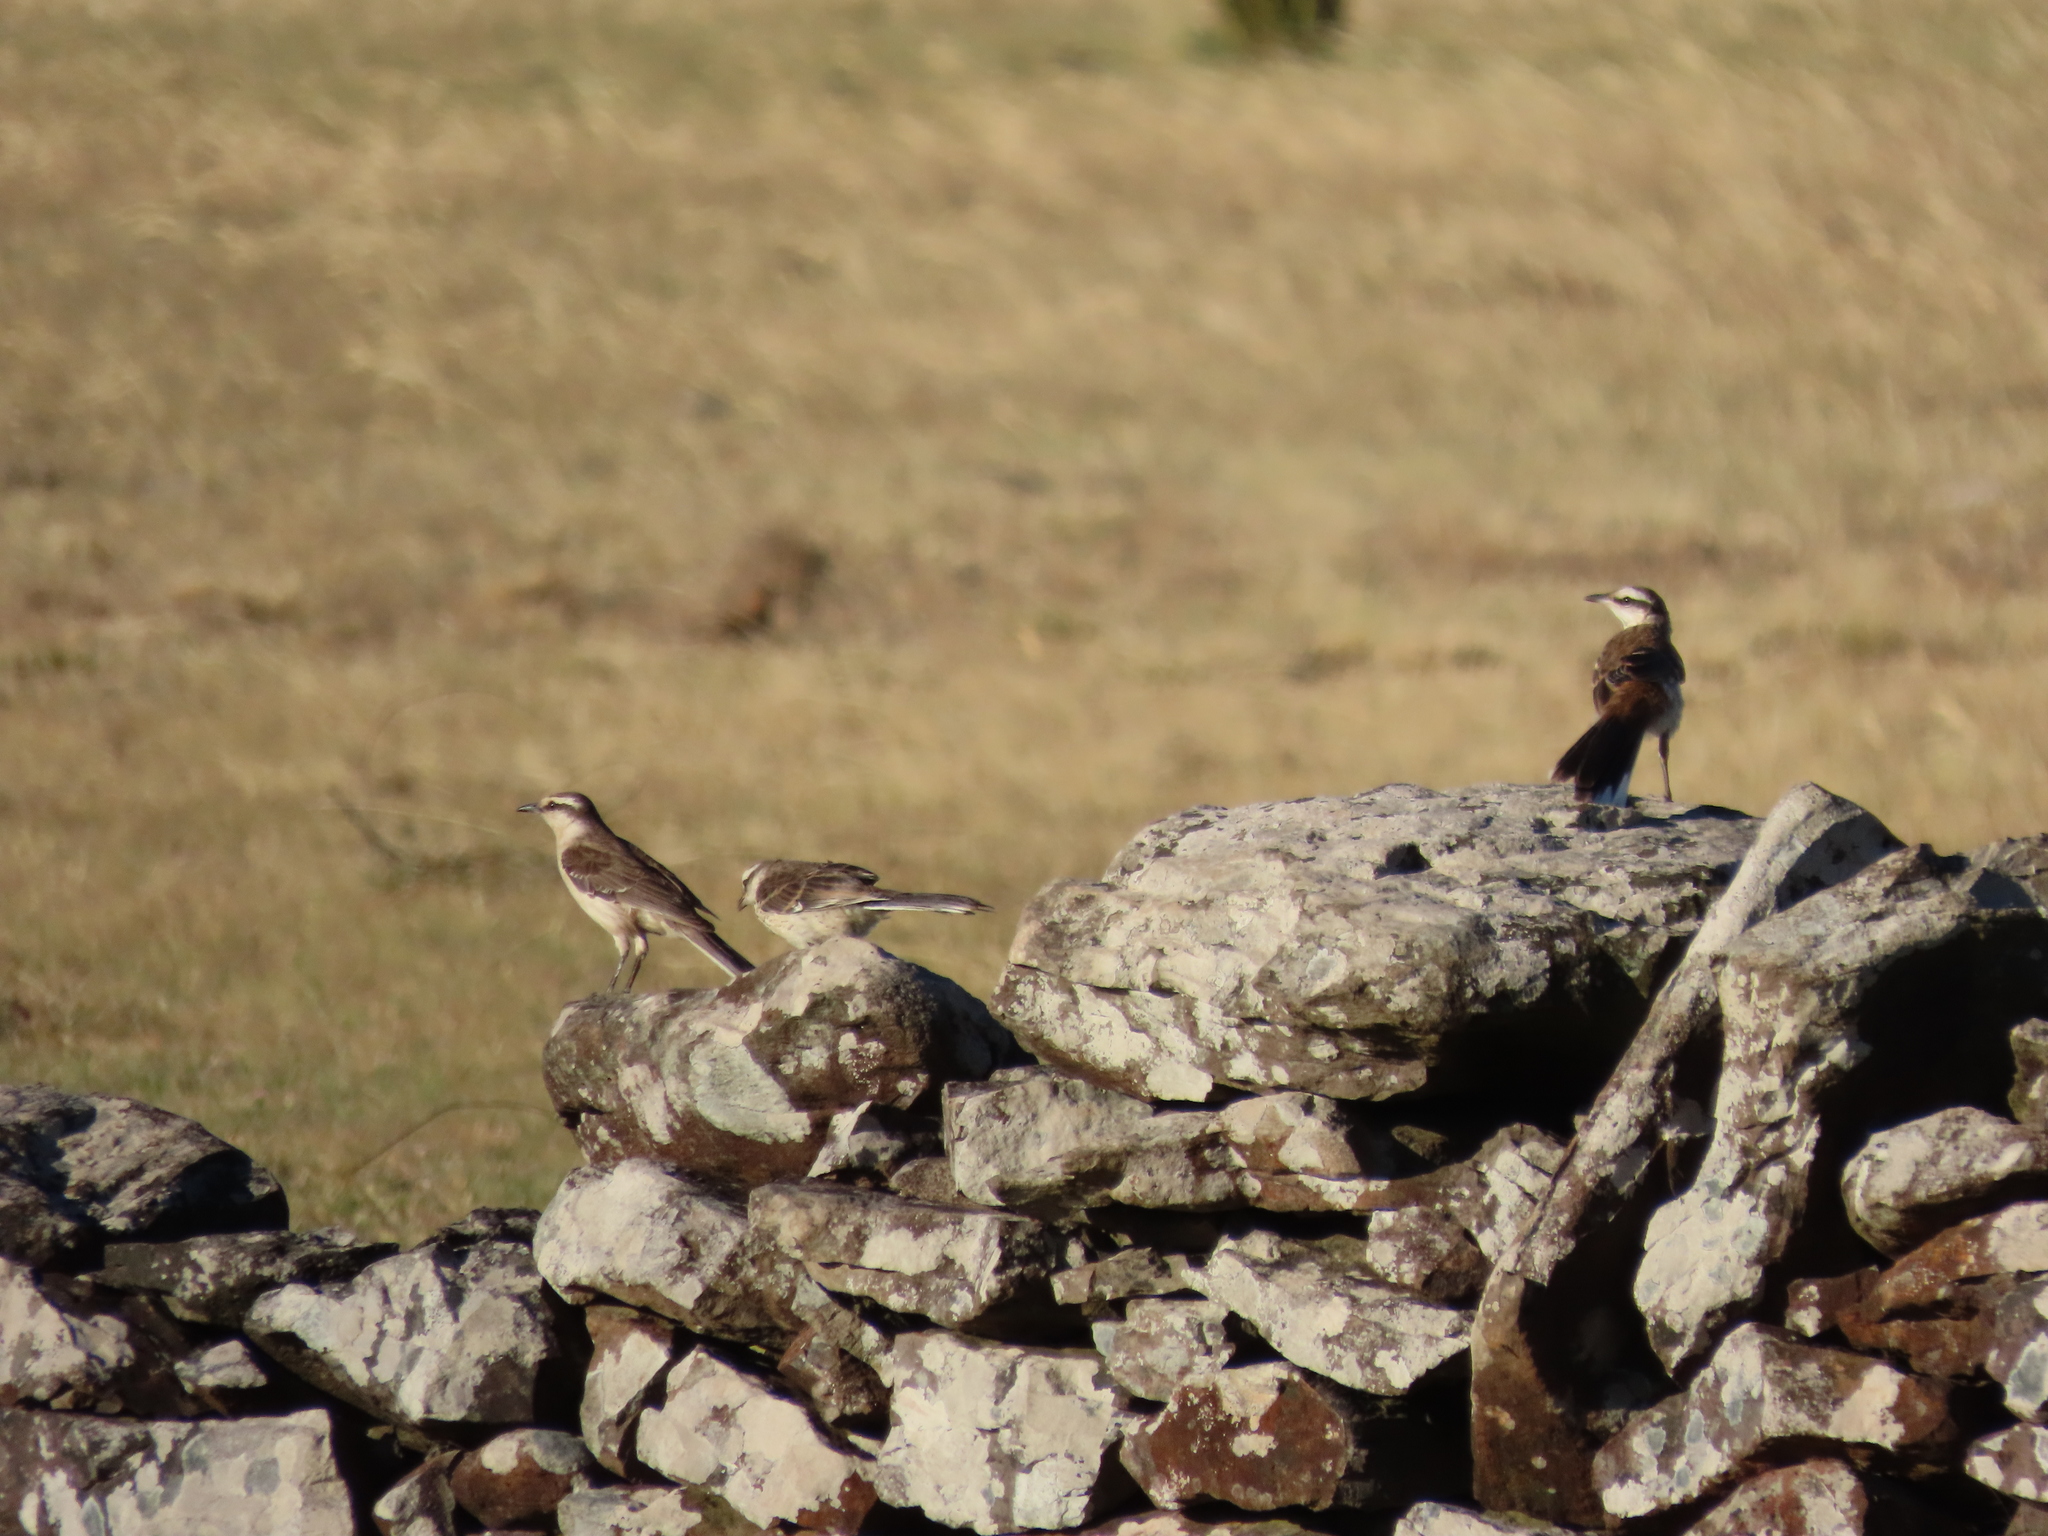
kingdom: Animalia
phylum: Chordata
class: Aves
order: Passeriformes
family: Mimidae
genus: Mimus
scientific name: Mimus saturninus
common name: Chalk-browed mockingbird
